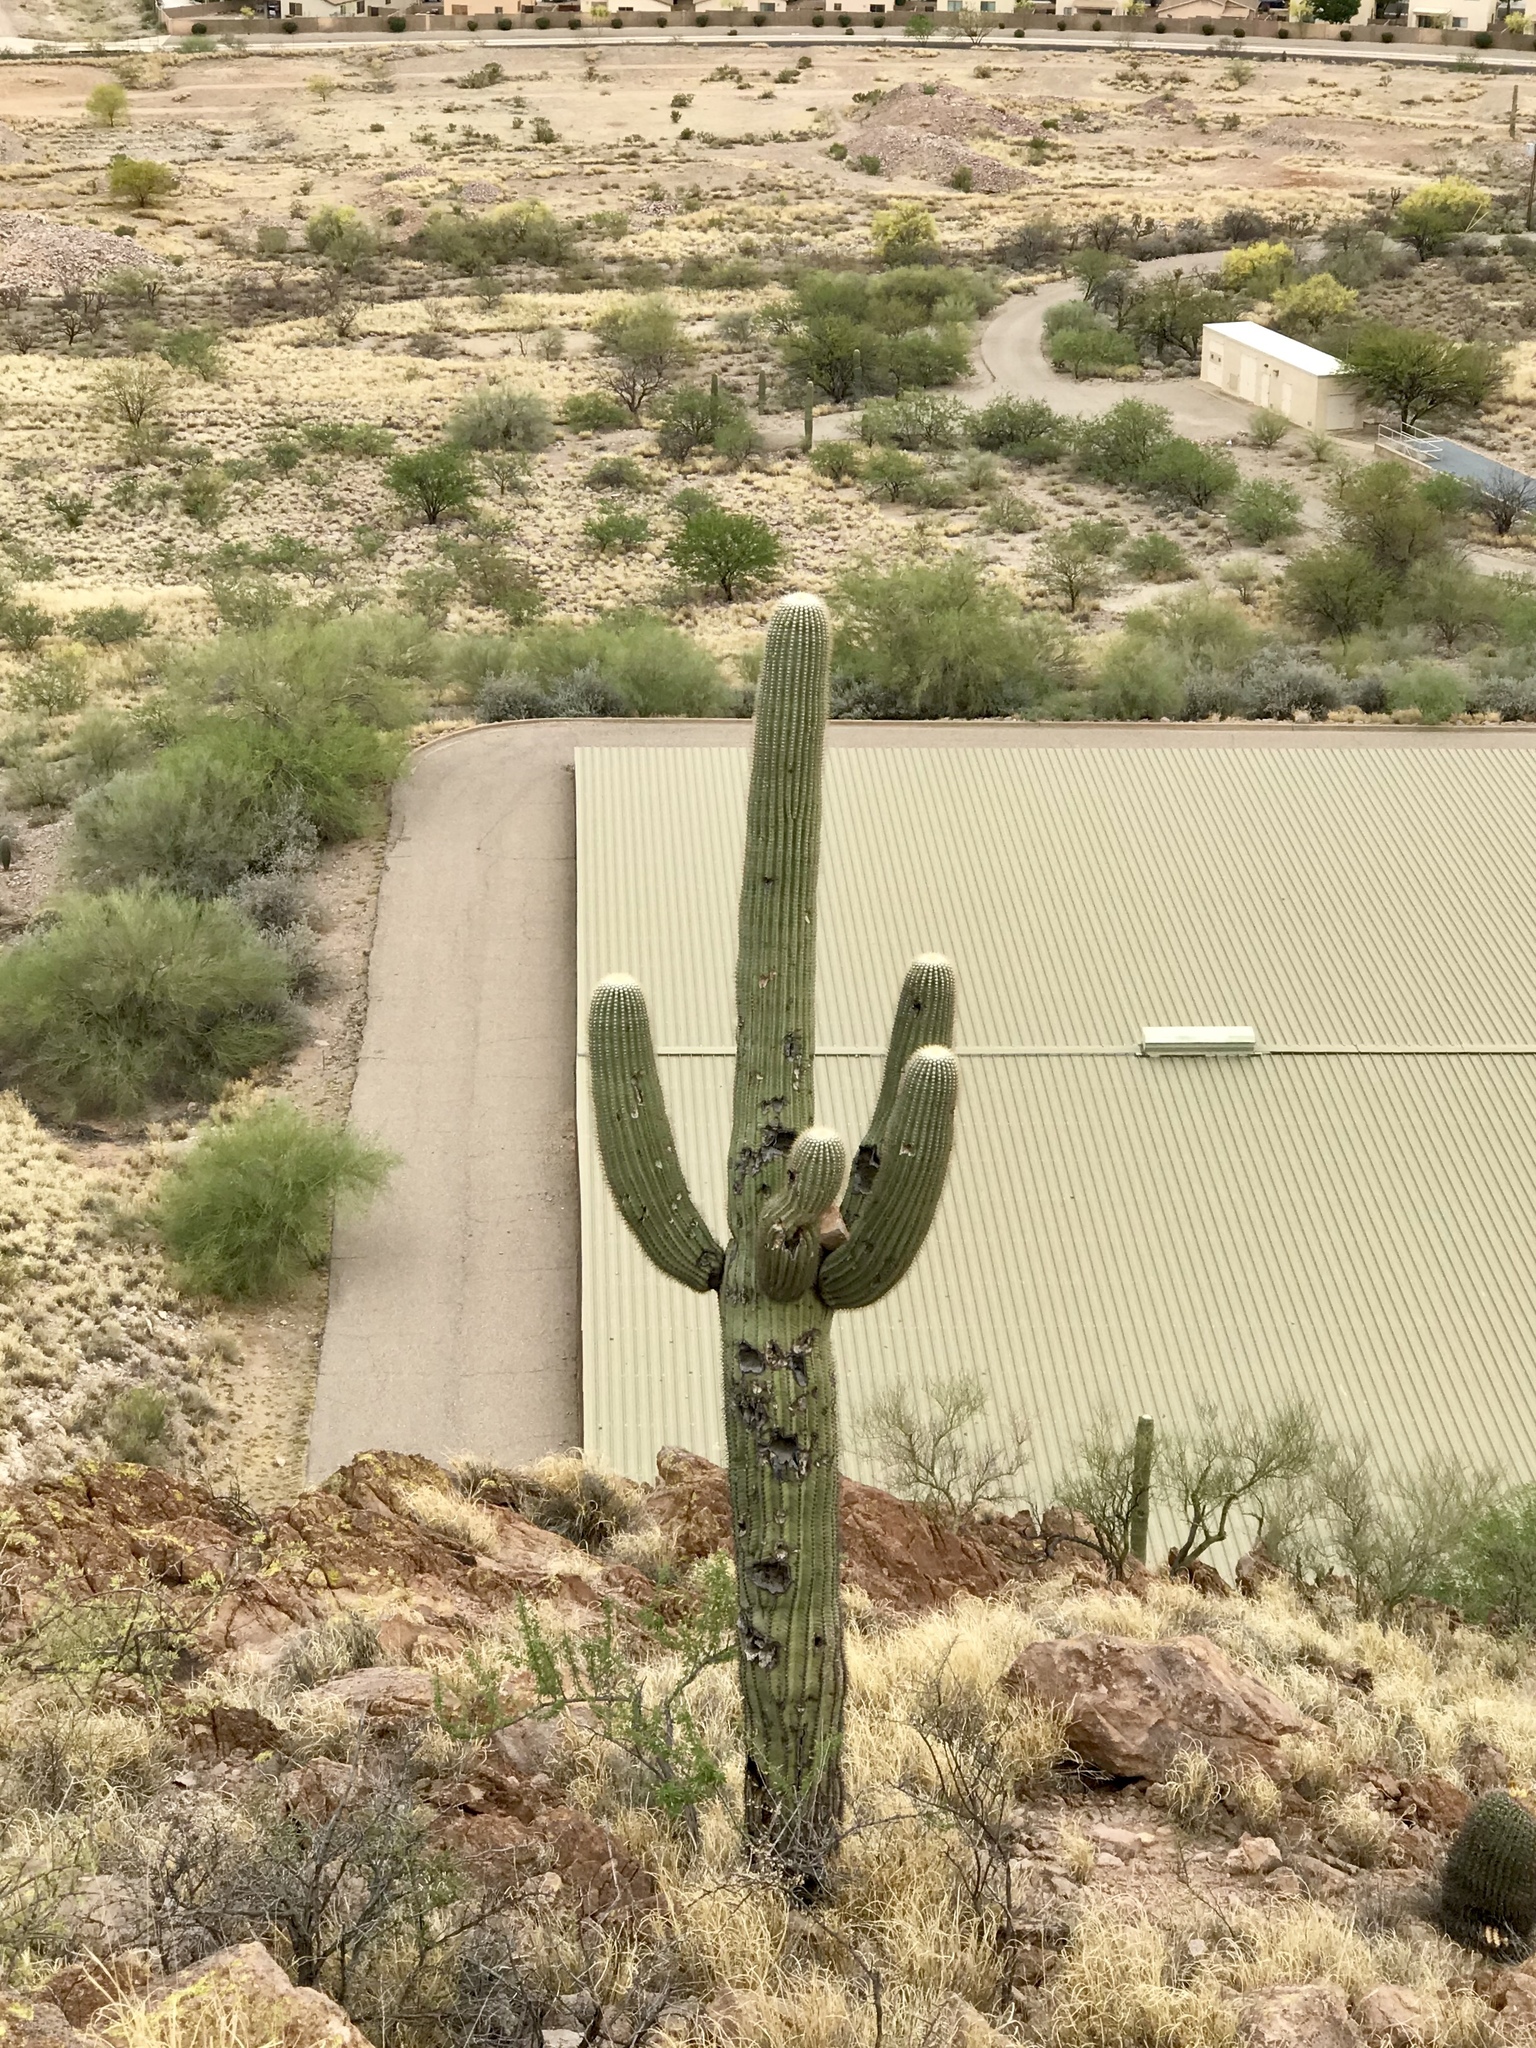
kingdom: Plantae
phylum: Tracheophyta
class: Magnoliopsida
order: Caryophyllales
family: Cactaceae
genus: Carnegiea
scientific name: Carnegiea gigantea
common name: Saguaro
